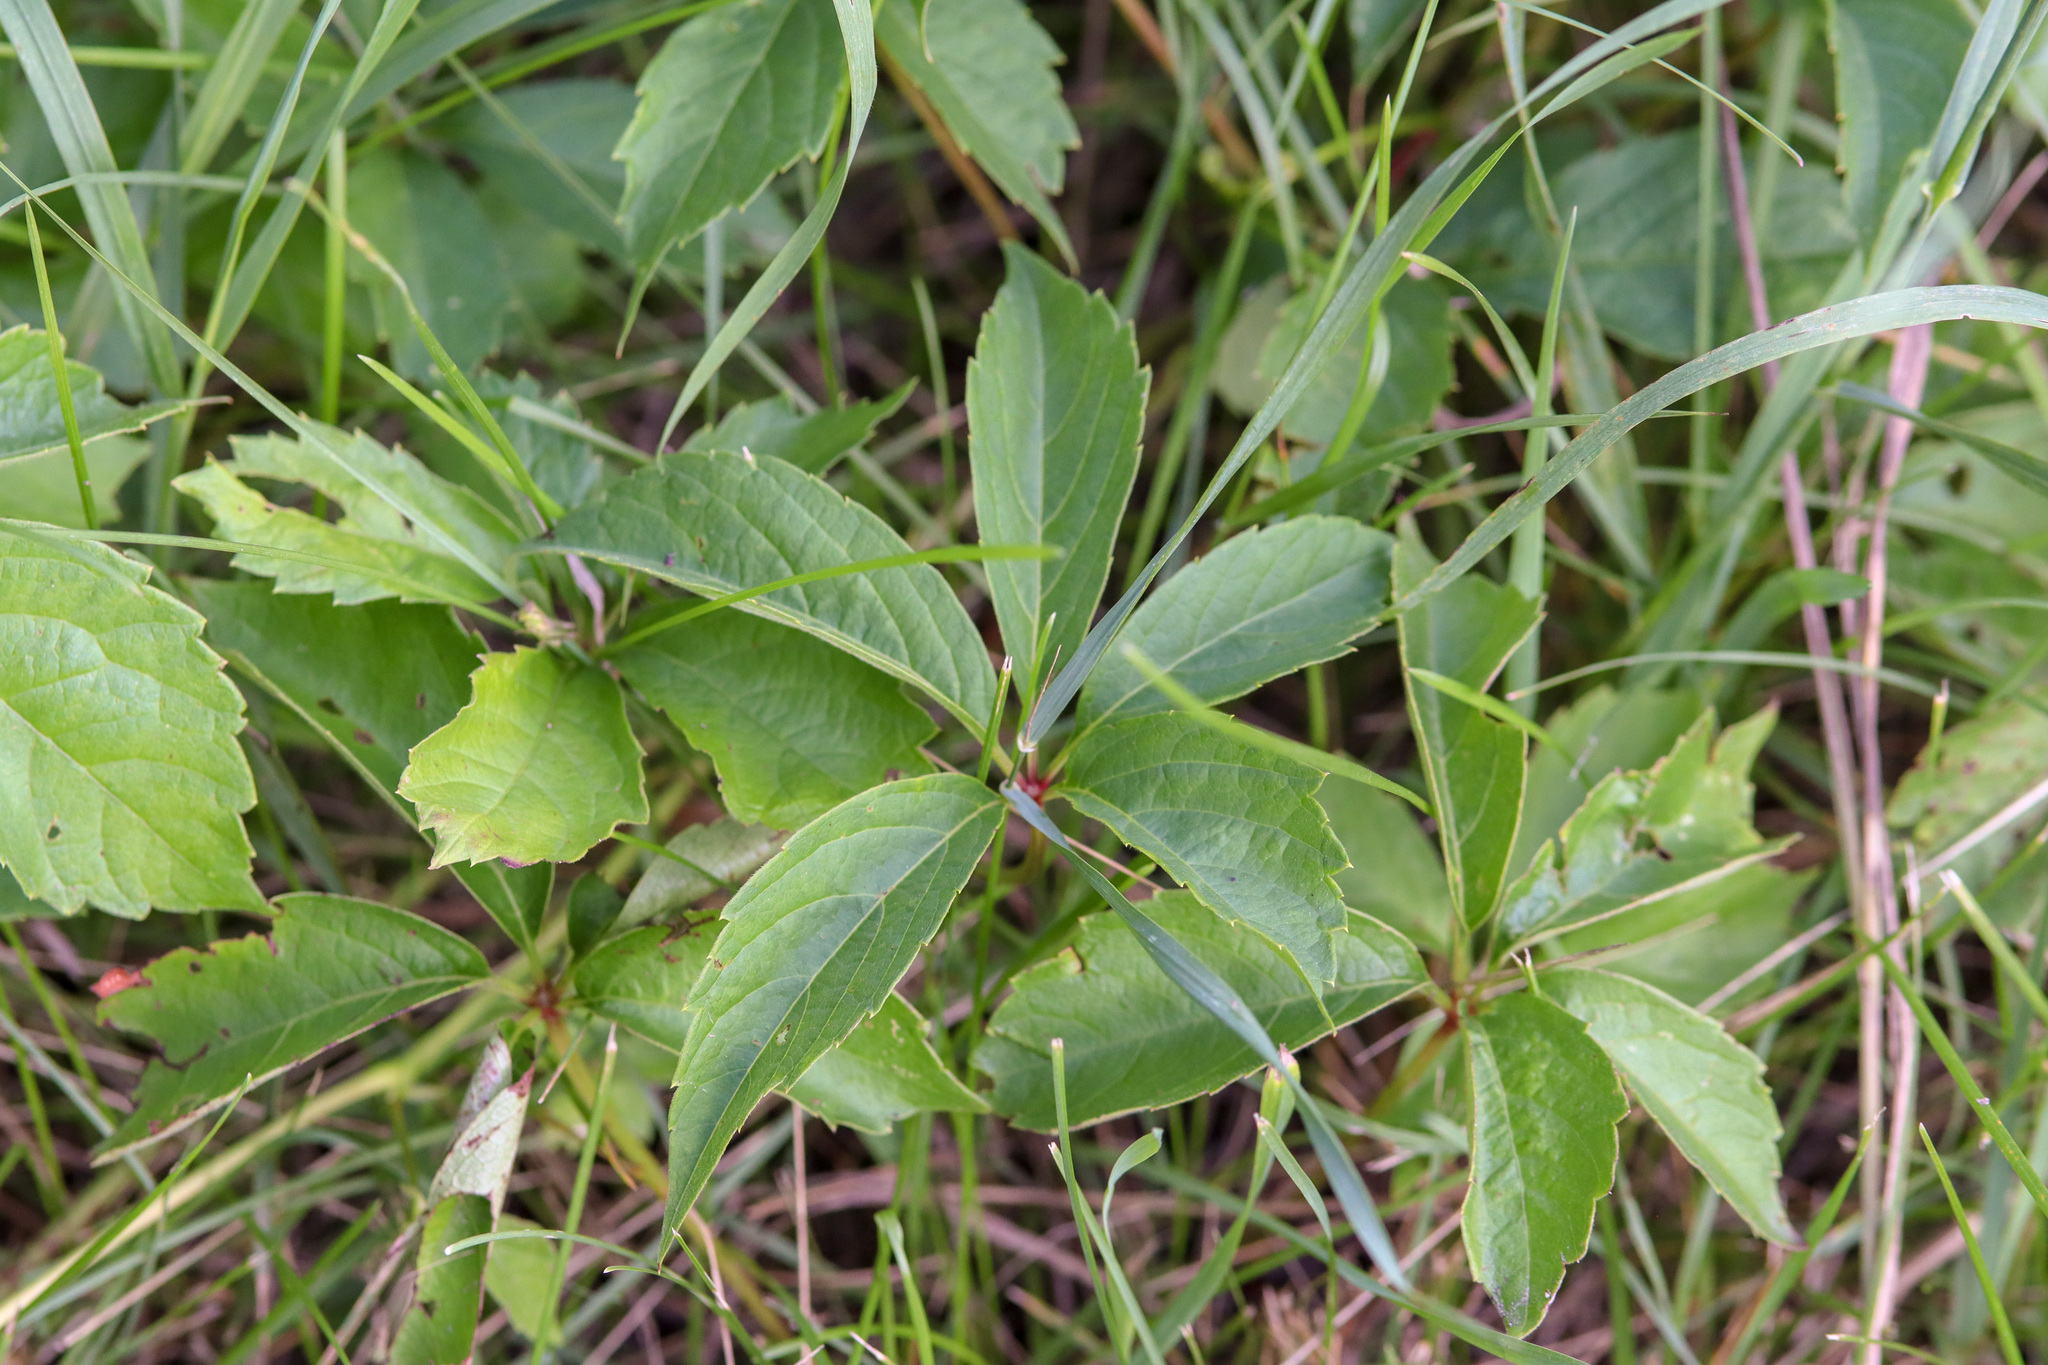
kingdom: Plantae
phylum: Tracheophyta
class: Magnoliopsida
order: Vitales
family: Vitaceae
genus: Parthenocissus
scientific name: Parthenocissus quinquefolia
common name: Virginia-creeper
